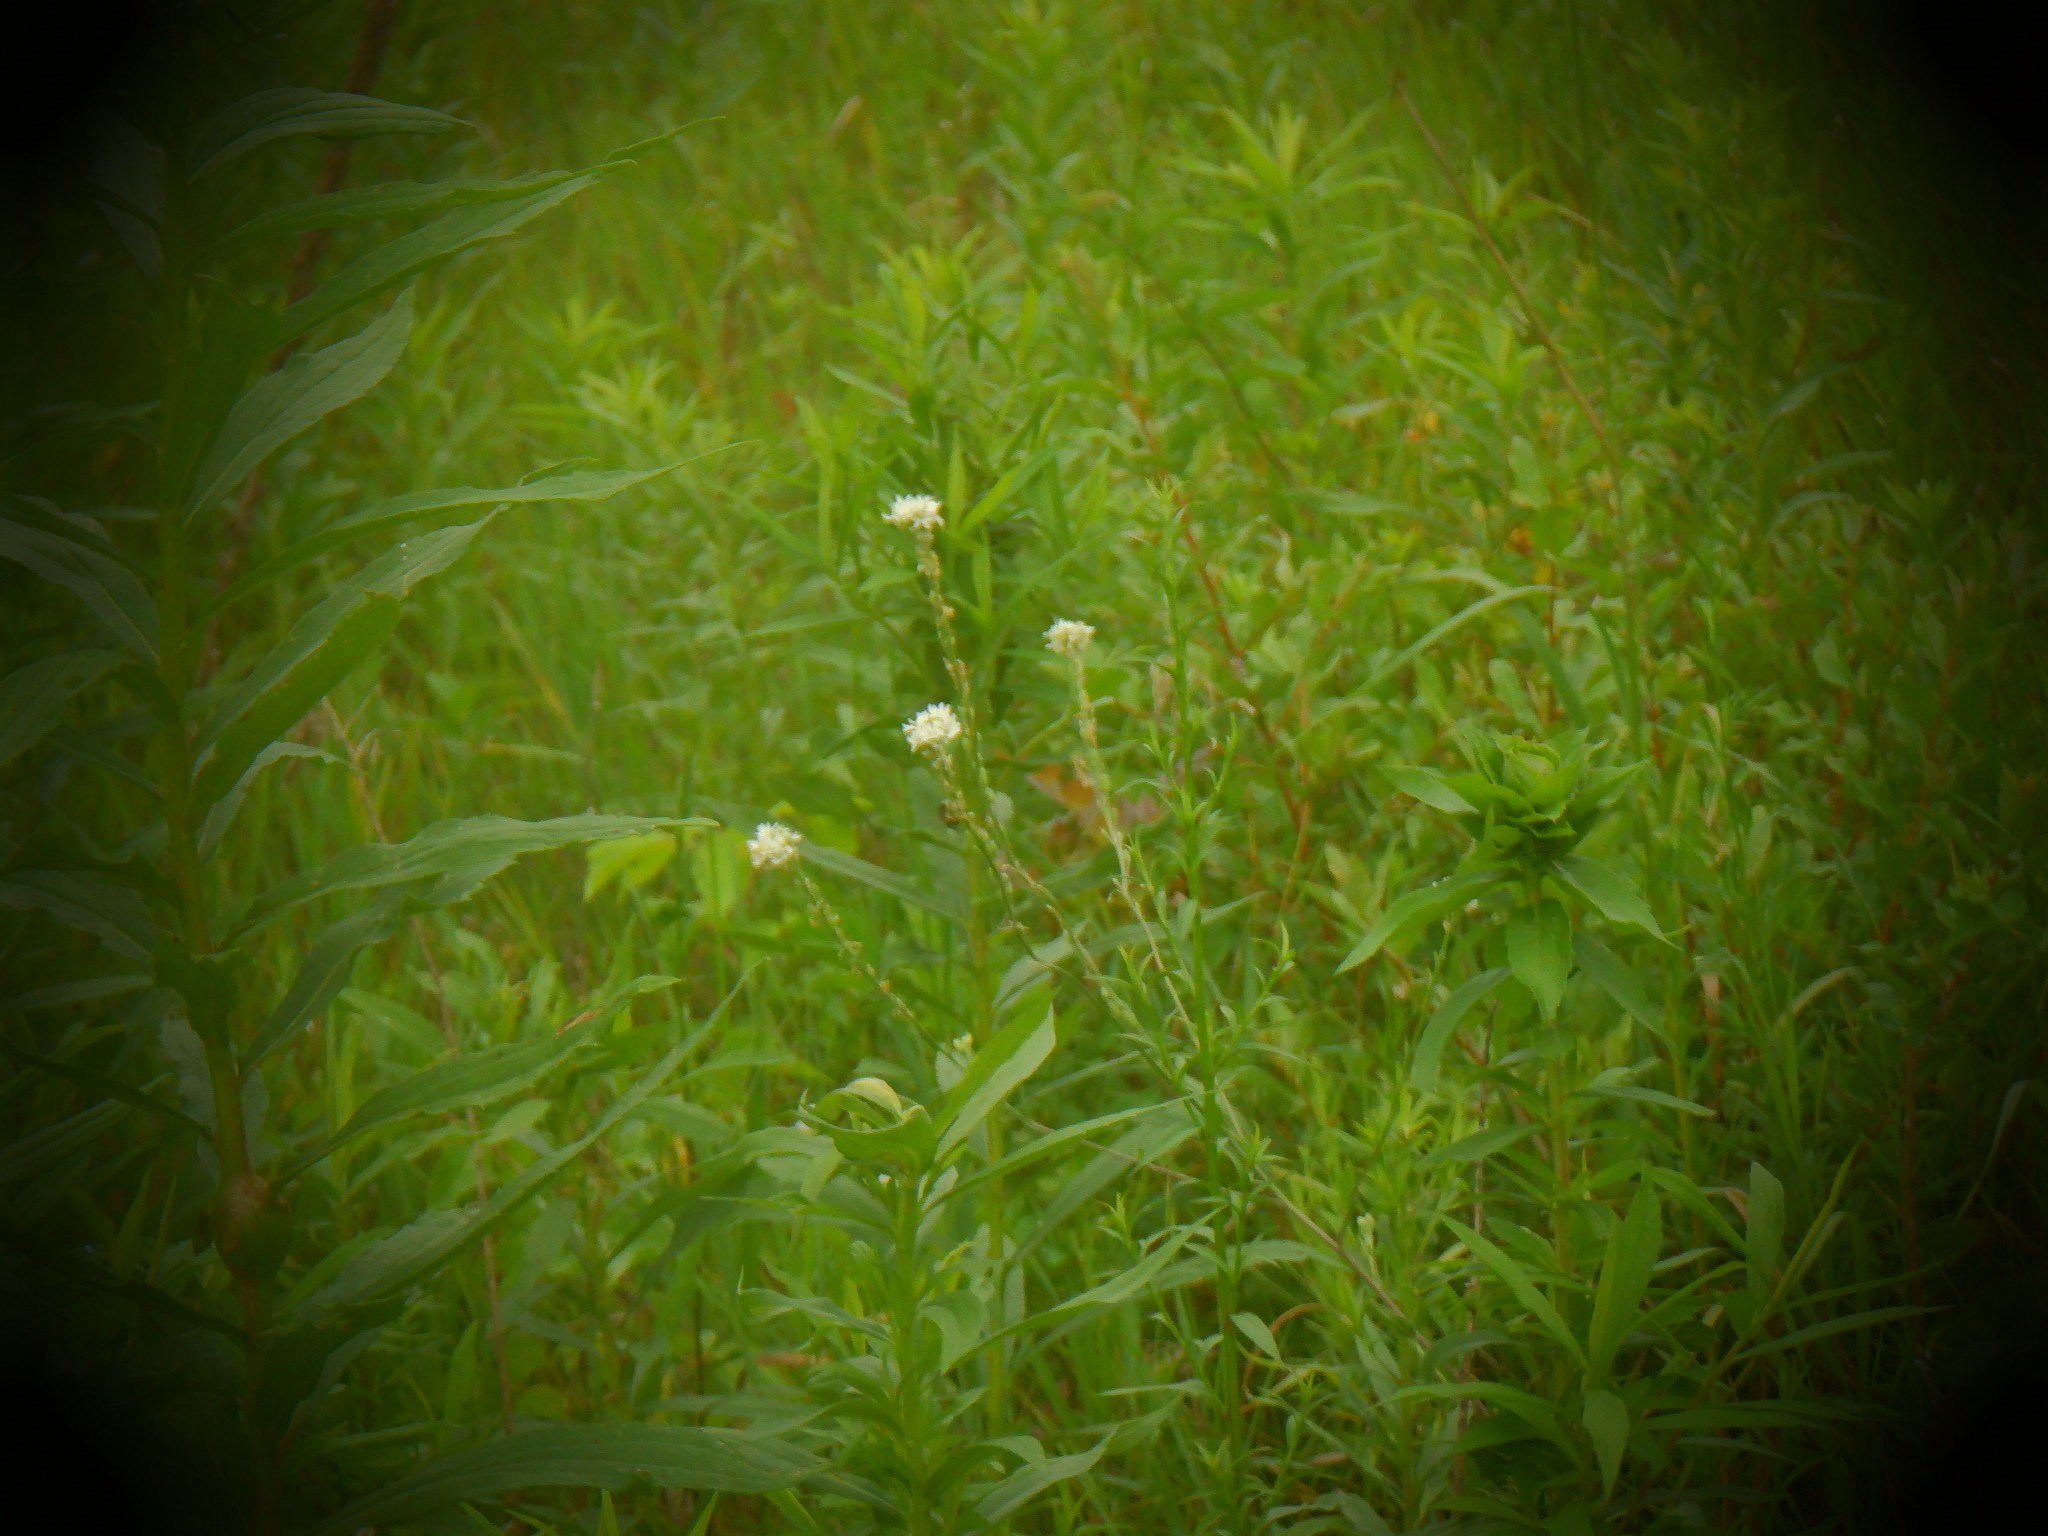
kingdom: Plantae
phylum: Tracheophyta
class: Magnoliopsida
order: Brassicales
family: Brassicaceae
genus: Berteroa
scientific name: Berteroa incana
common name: Hoary alison
